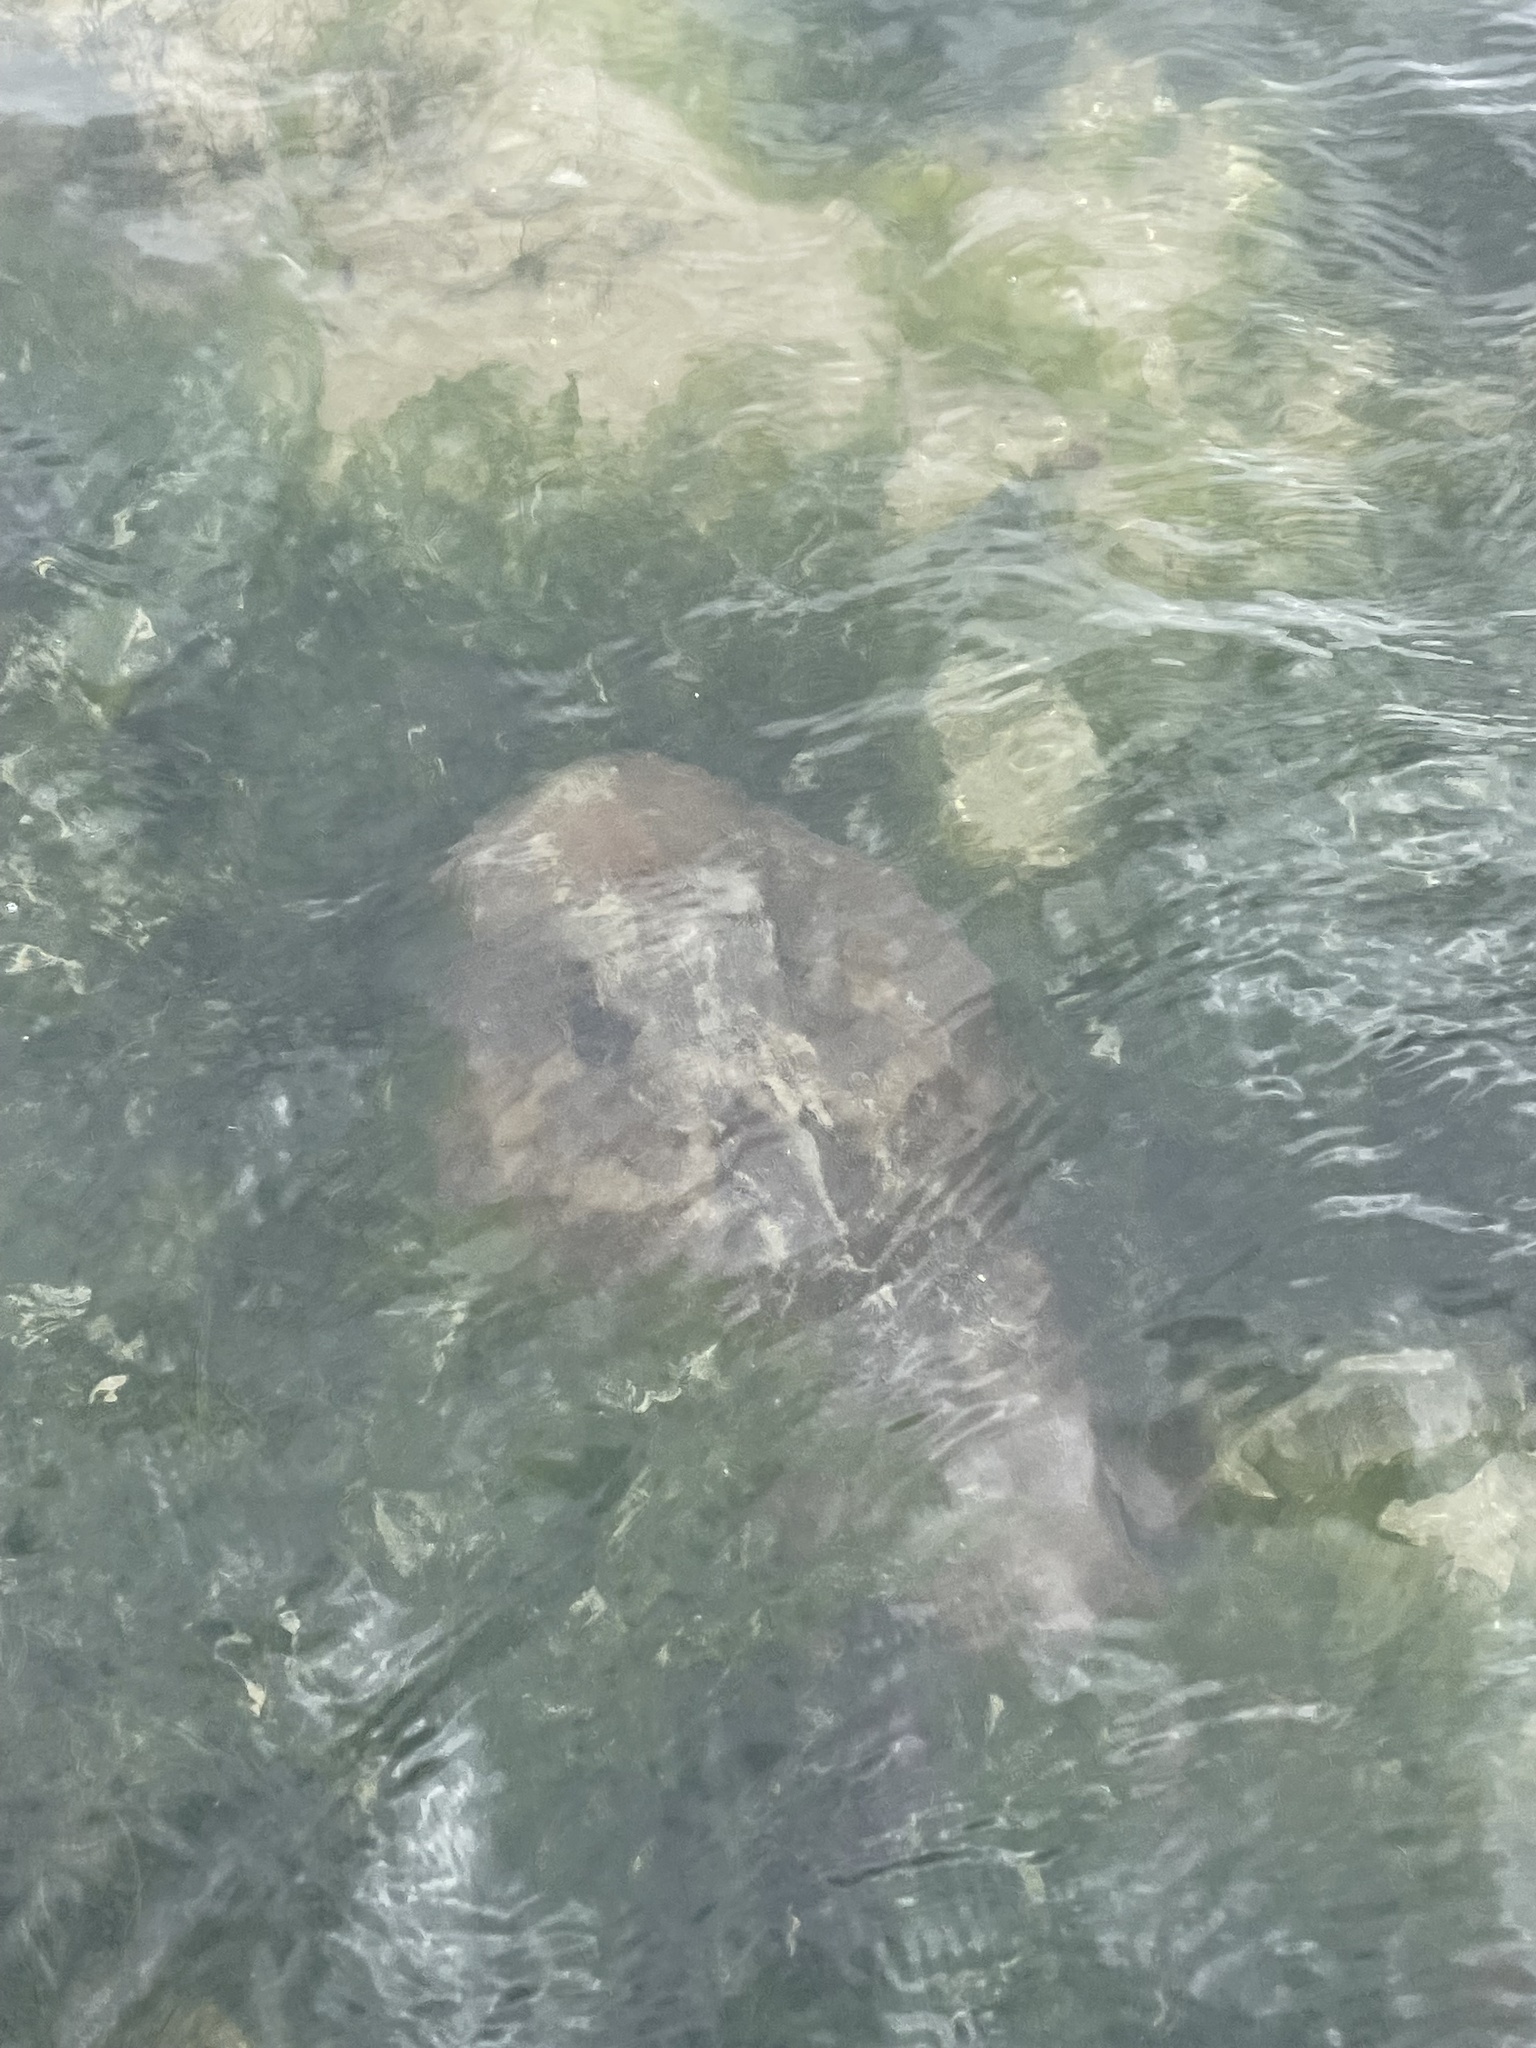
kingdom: Animalia
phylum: Chordata
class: Elasmobranchii
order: Rhinopristiformes
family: Rhinobatidae
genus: Trygonorrhina
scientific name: Trygonorrhina dumerilii
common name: Banjo shark
